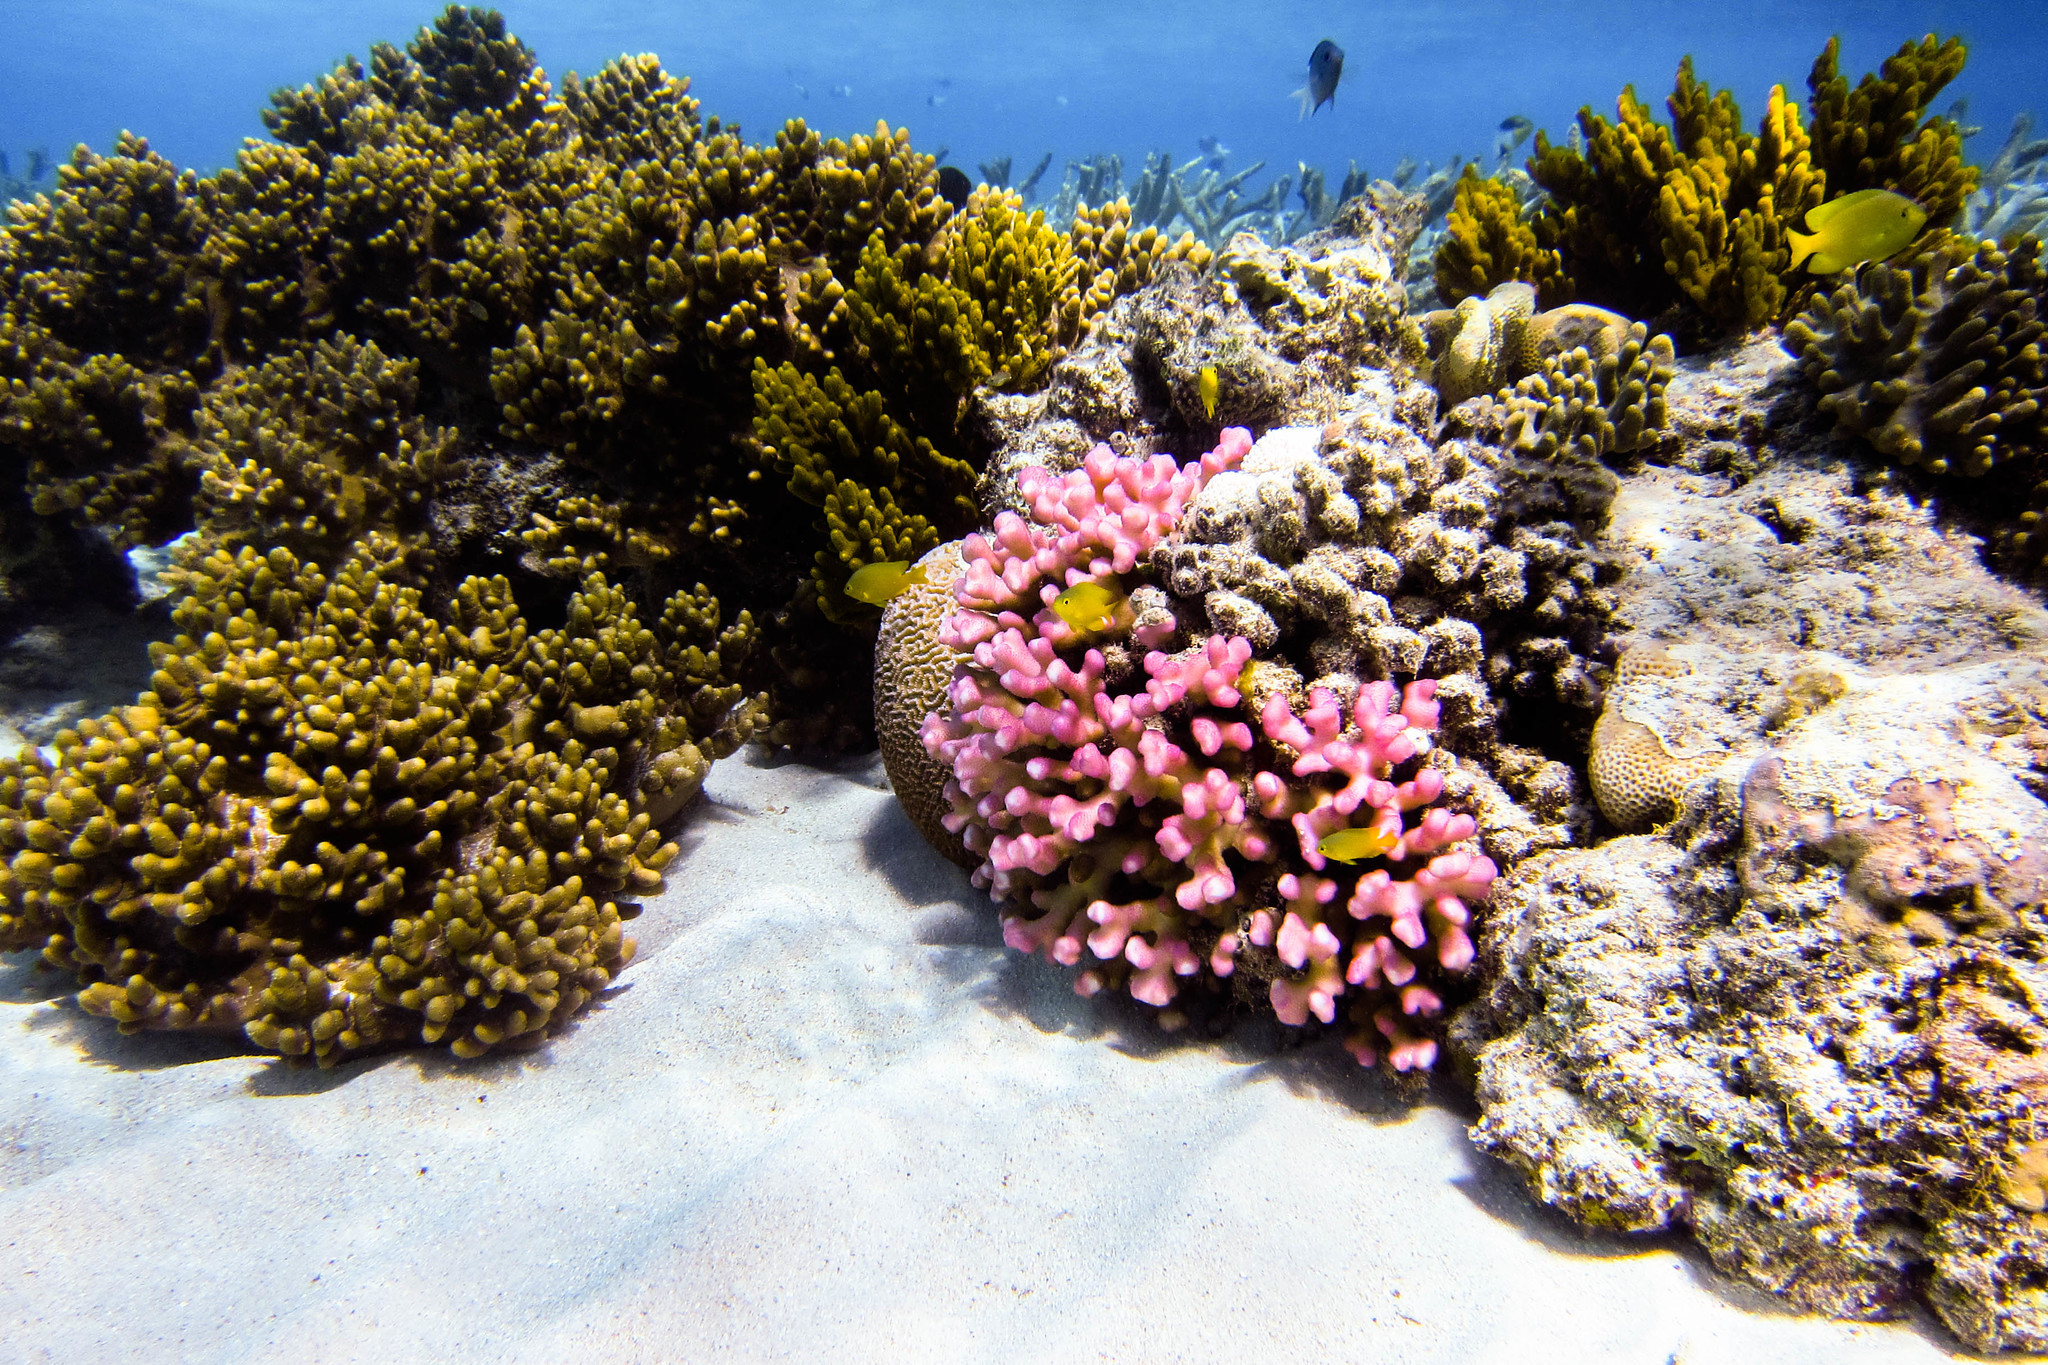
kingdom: Animalia
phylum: Chordata
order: Perciformes
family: Pomacentridae
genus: Pomacentrus
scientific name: Pomacentrus moluccensis
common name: Lemon damsel
